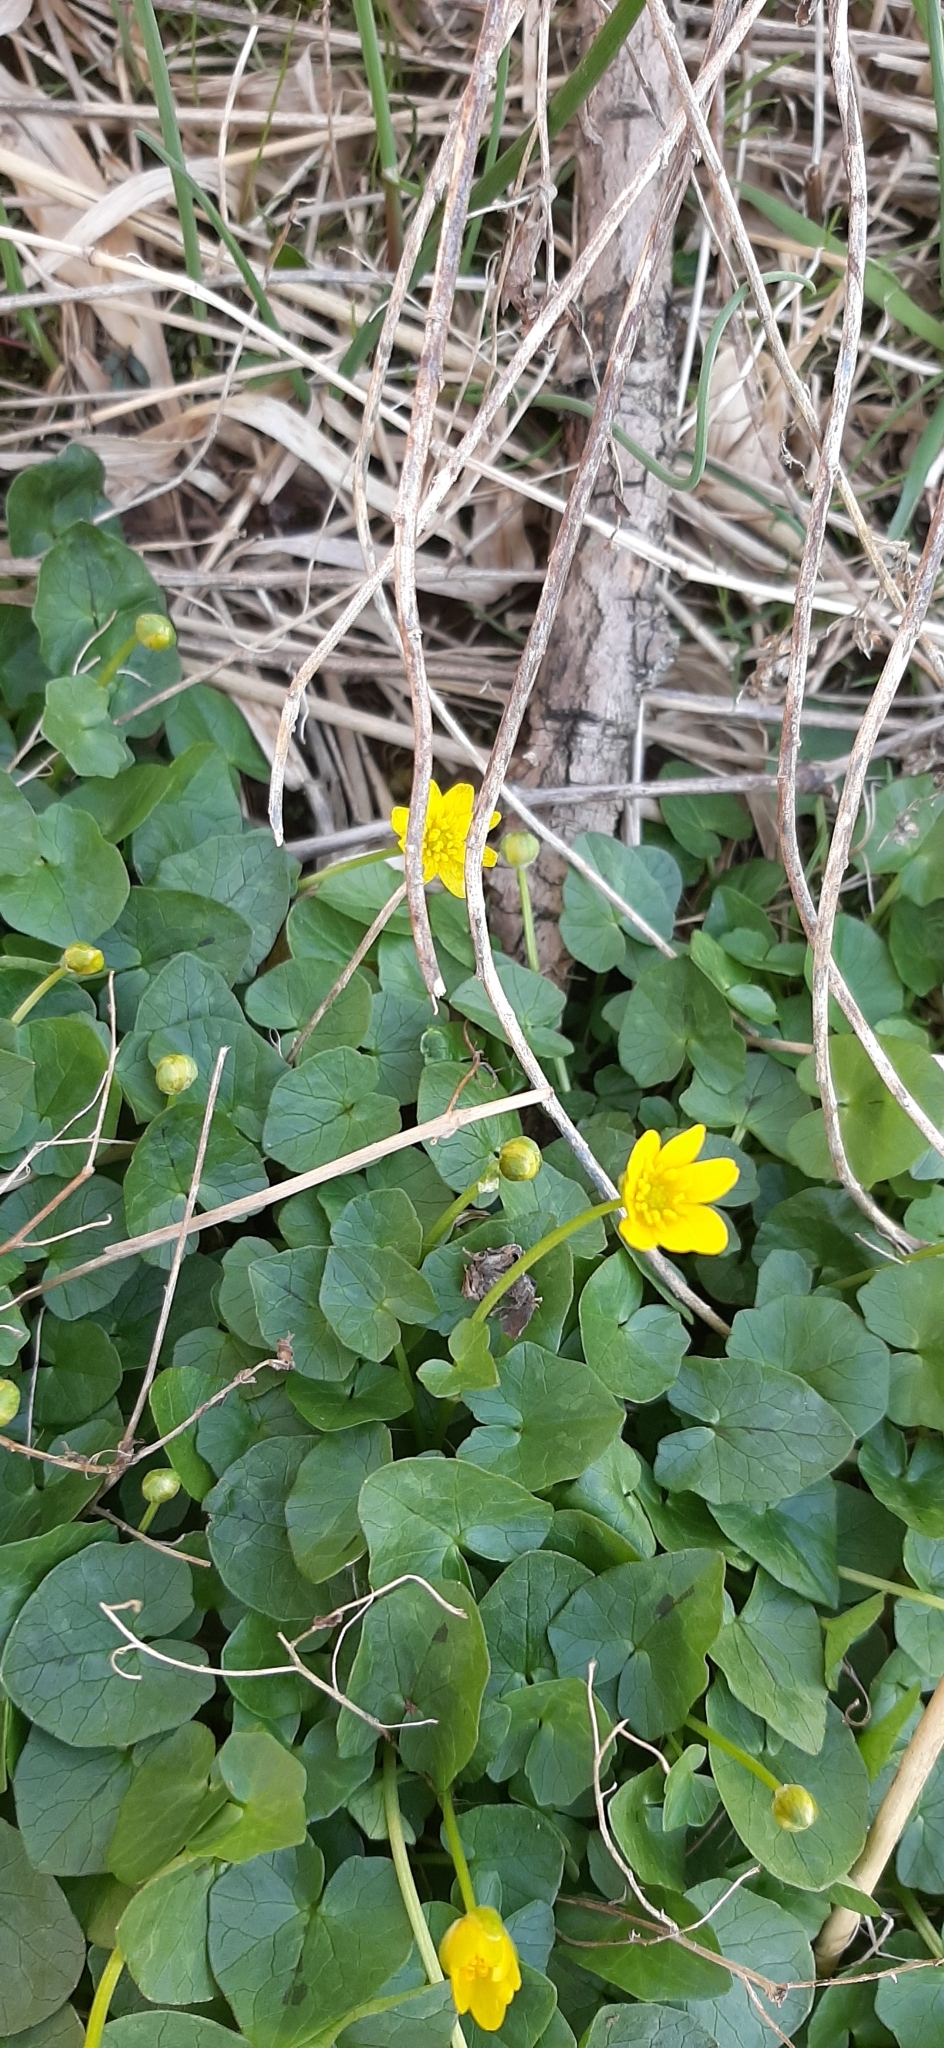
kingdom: Plantae
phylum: Tracheophyta
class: Magnoliopsida
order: Ranunculales
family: Ranunculaceae
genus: Ficaria
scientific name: Ficaria verna
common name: Lesser celandine
